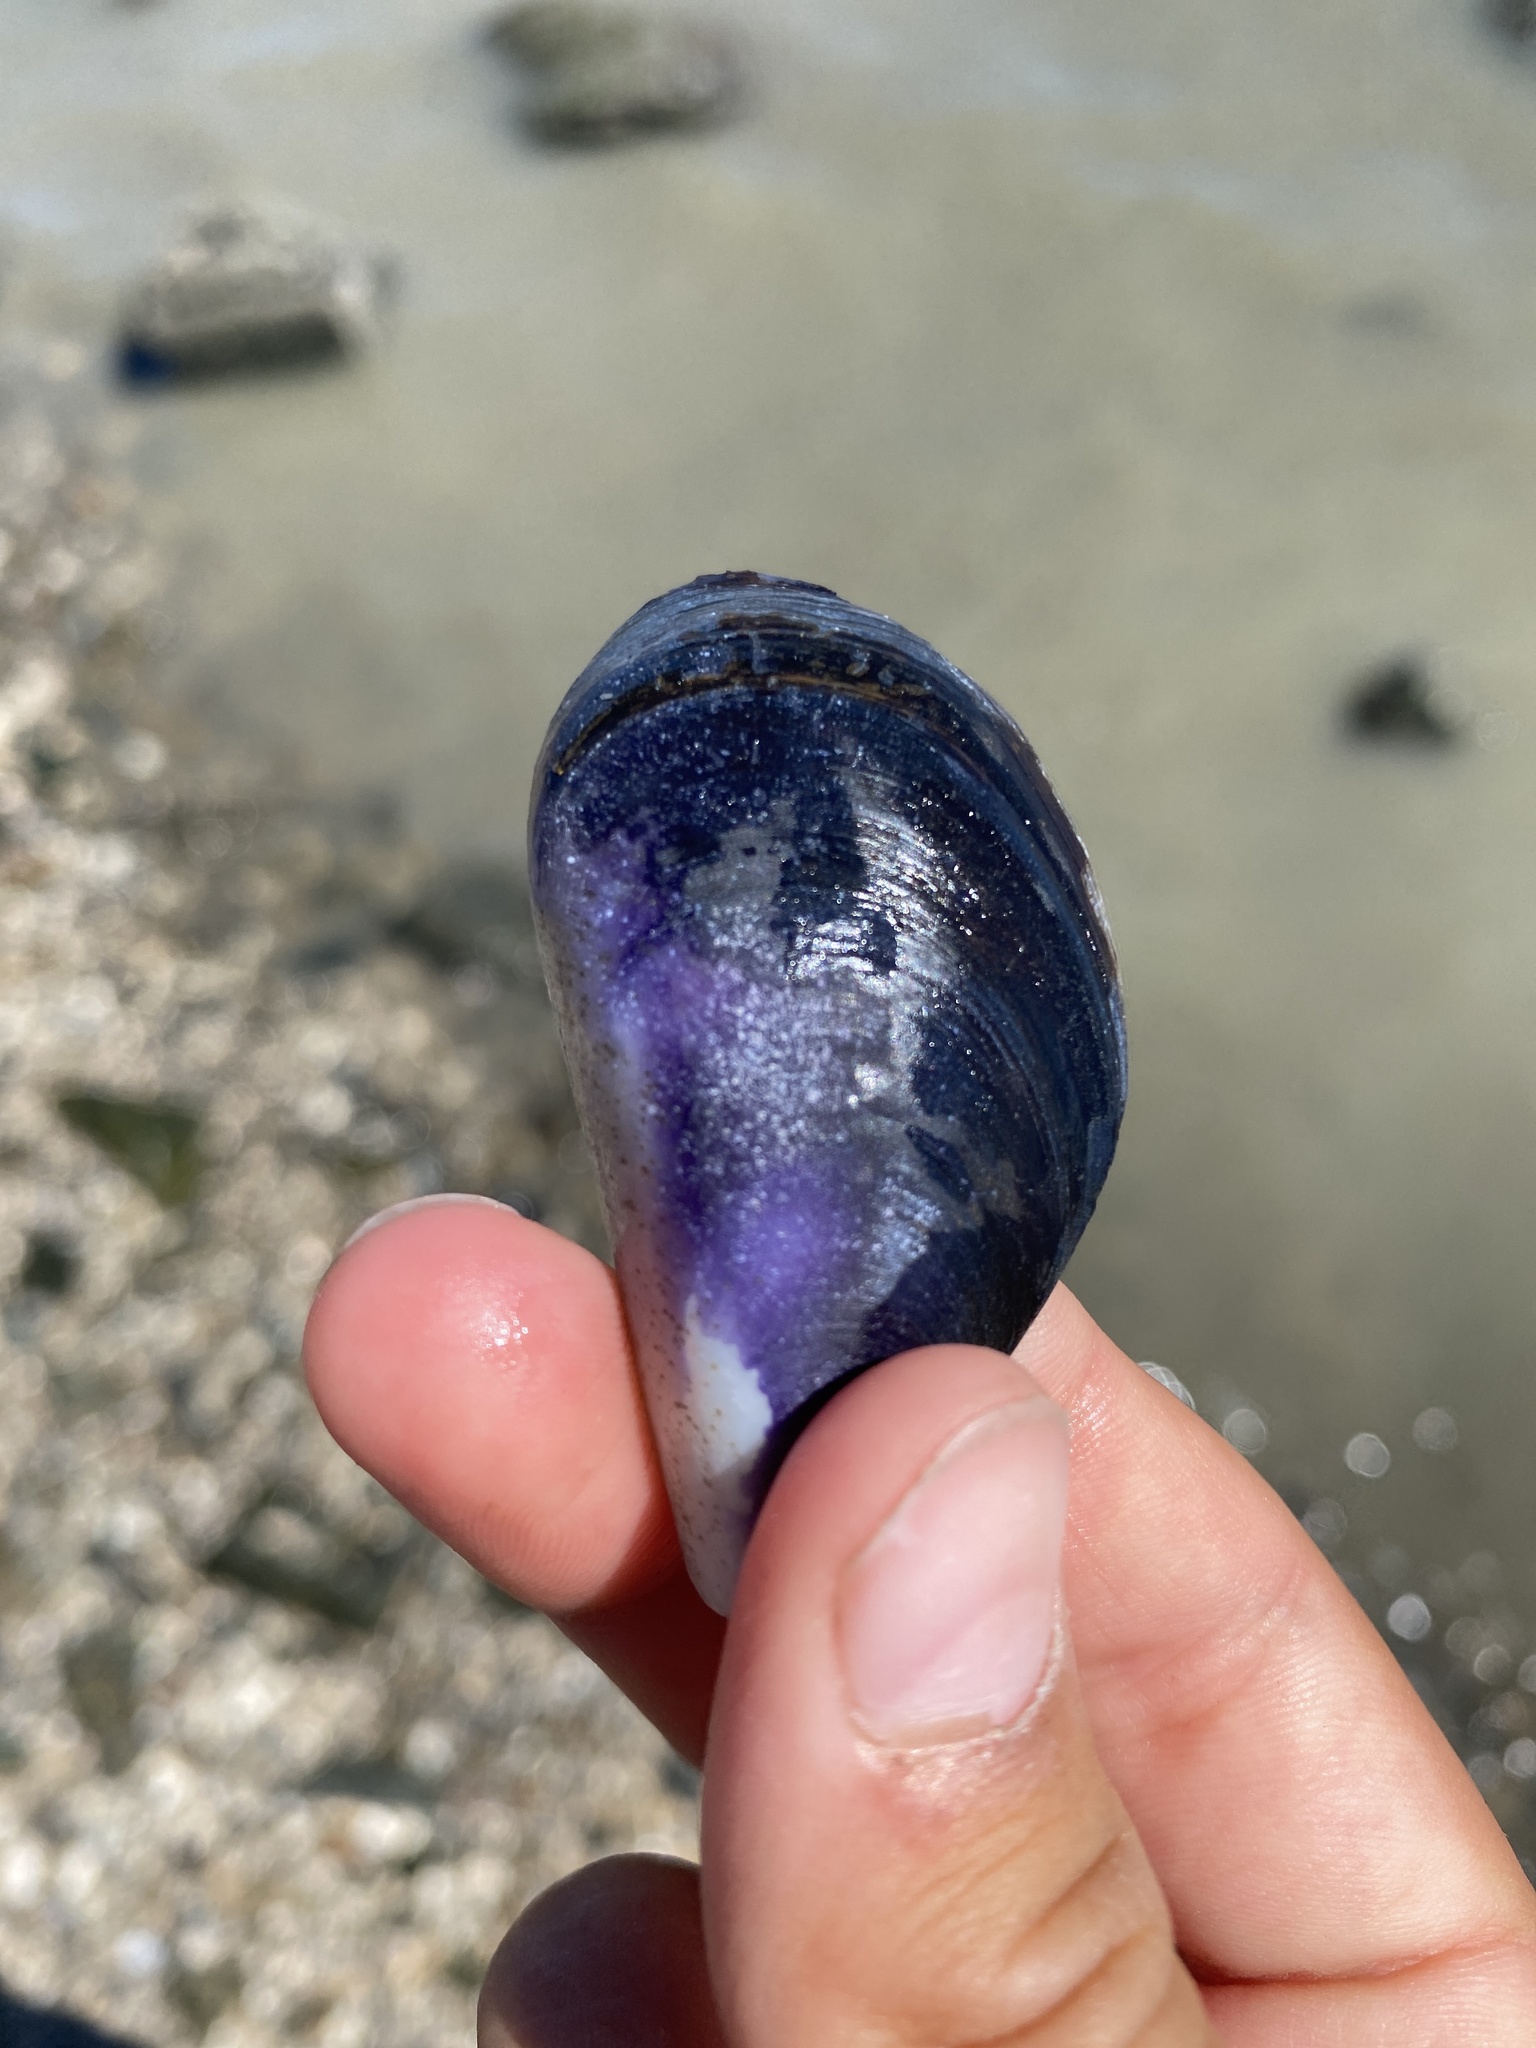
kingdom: Animalia
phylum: Mollusca
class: Bivalvia
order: Mytilida
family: Mytilidae
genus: Mytilus
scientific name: Mytilus
